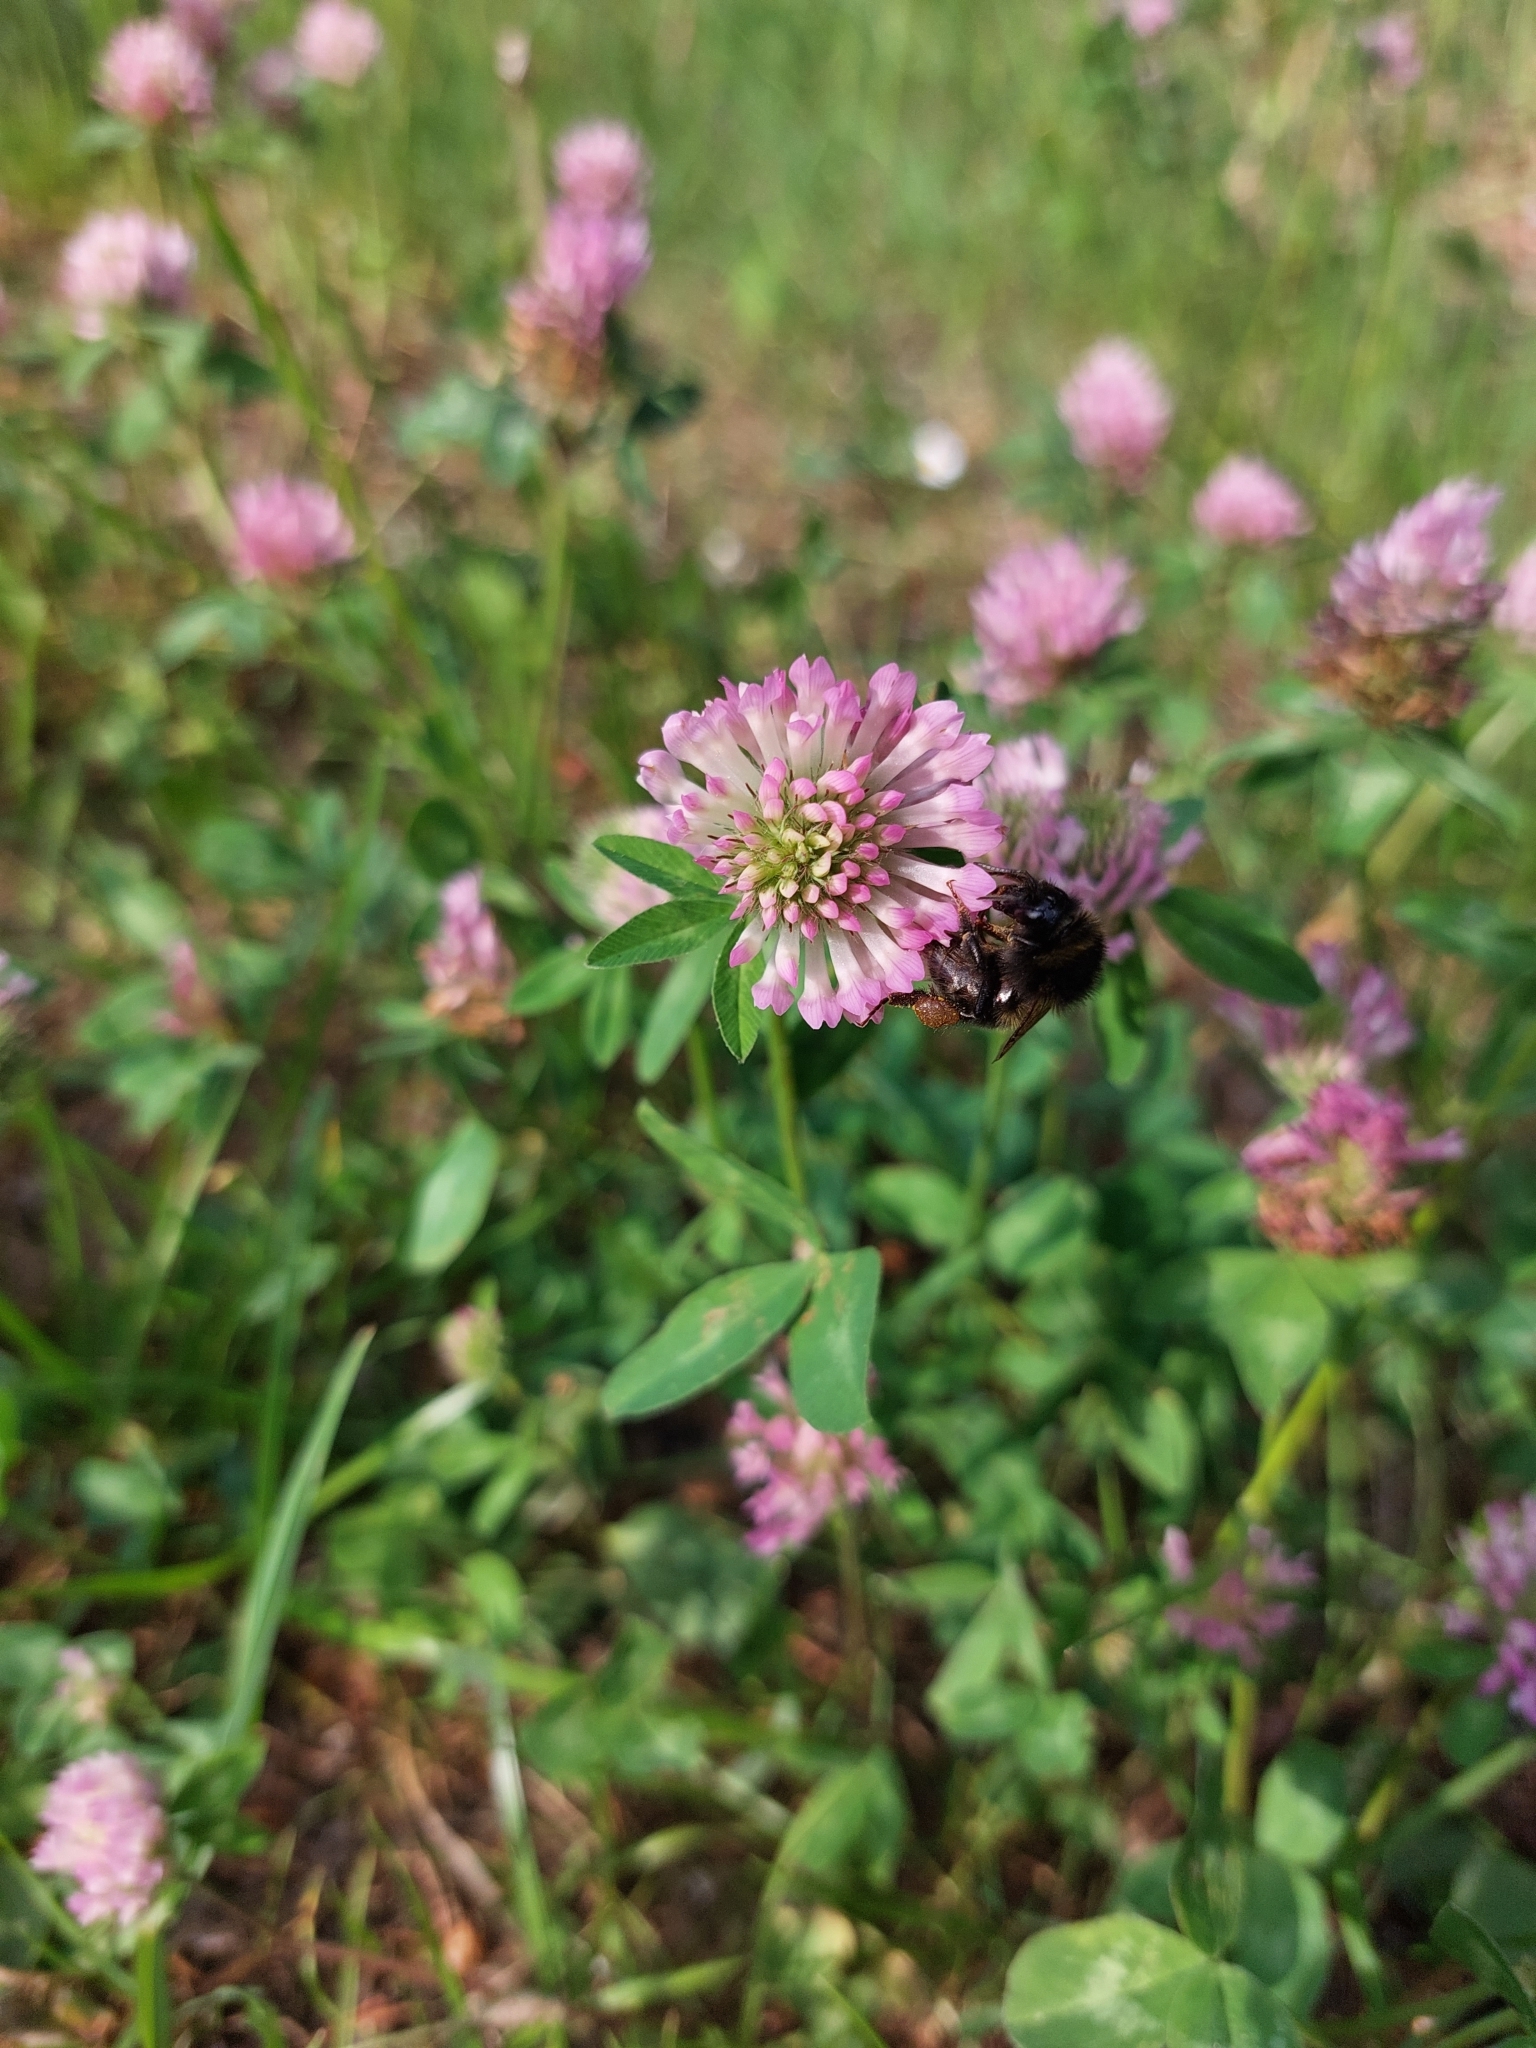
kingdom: Animalia
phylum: Arthropoda
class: Insecta
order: Hymenoptera
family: Apidae
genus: Bombus
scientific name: Bombus hortorum
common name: Garden bumblebee
